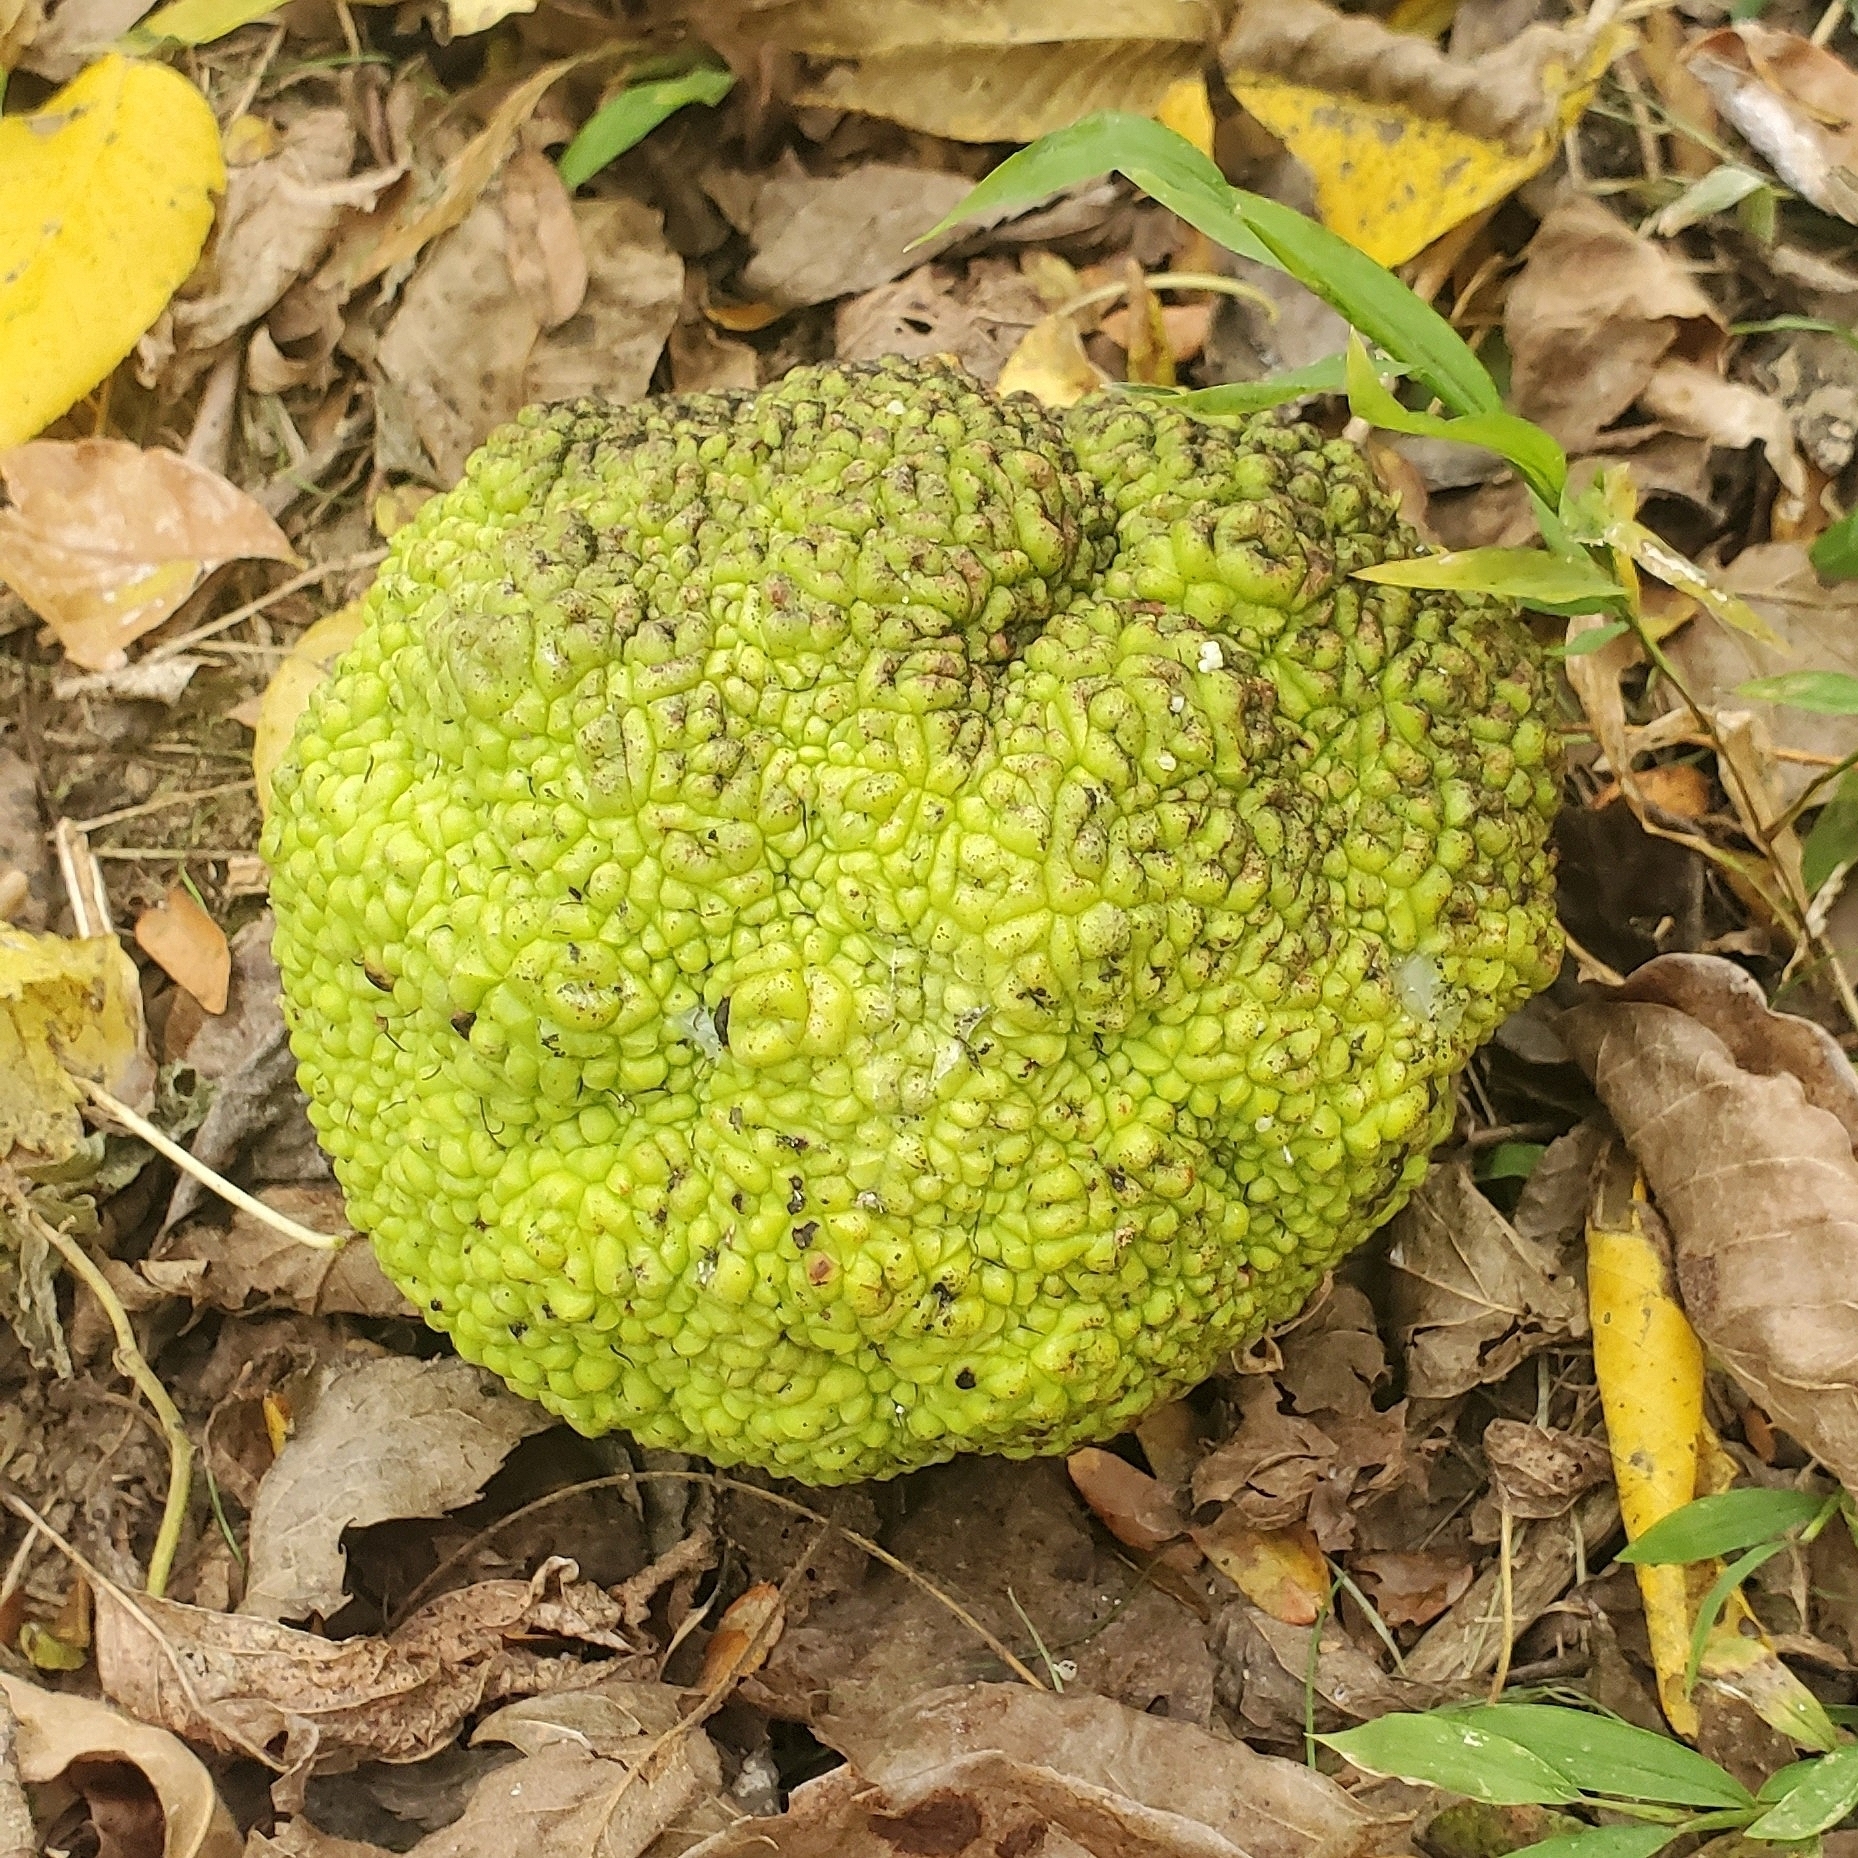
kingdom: Plantae
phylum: Tracheophyta
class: Magnoliopsida
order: Rosales
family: Moraceae
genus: Maclura
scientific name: Maclura pomifera
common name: Osage-orange
